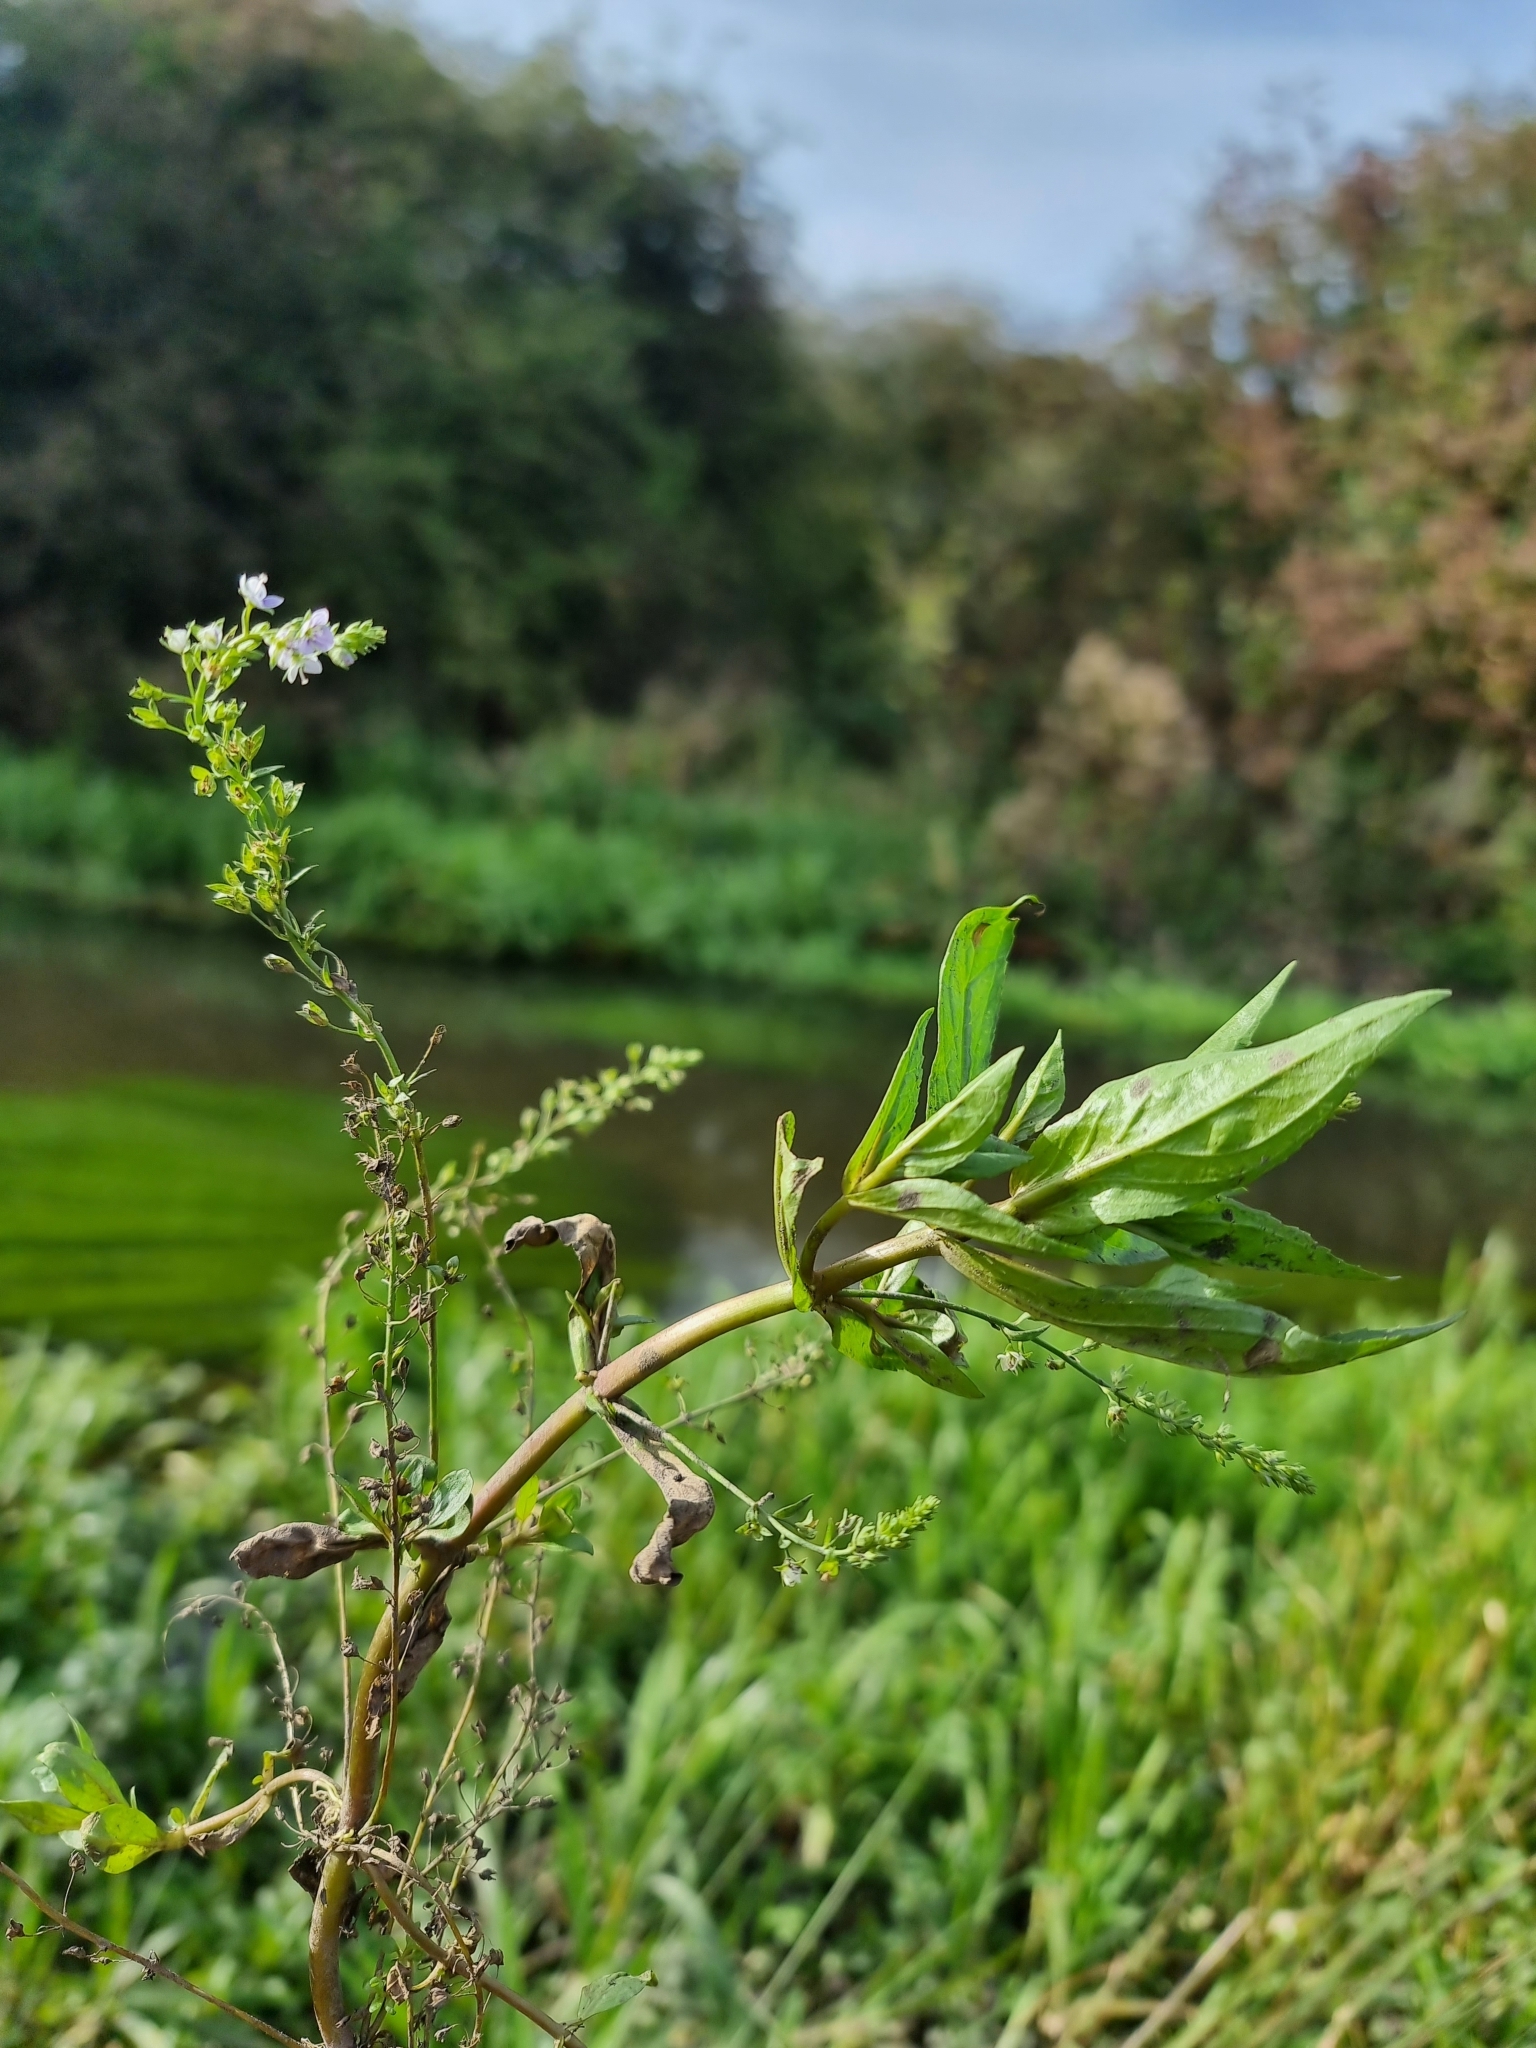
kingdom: Plantae
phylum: Tracheophyta
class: Magnoliopsida
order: Lamiales
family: Plantaginaceae
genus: Veronica
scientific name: Veronica anagallis-aquatica
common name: Water speedwell
